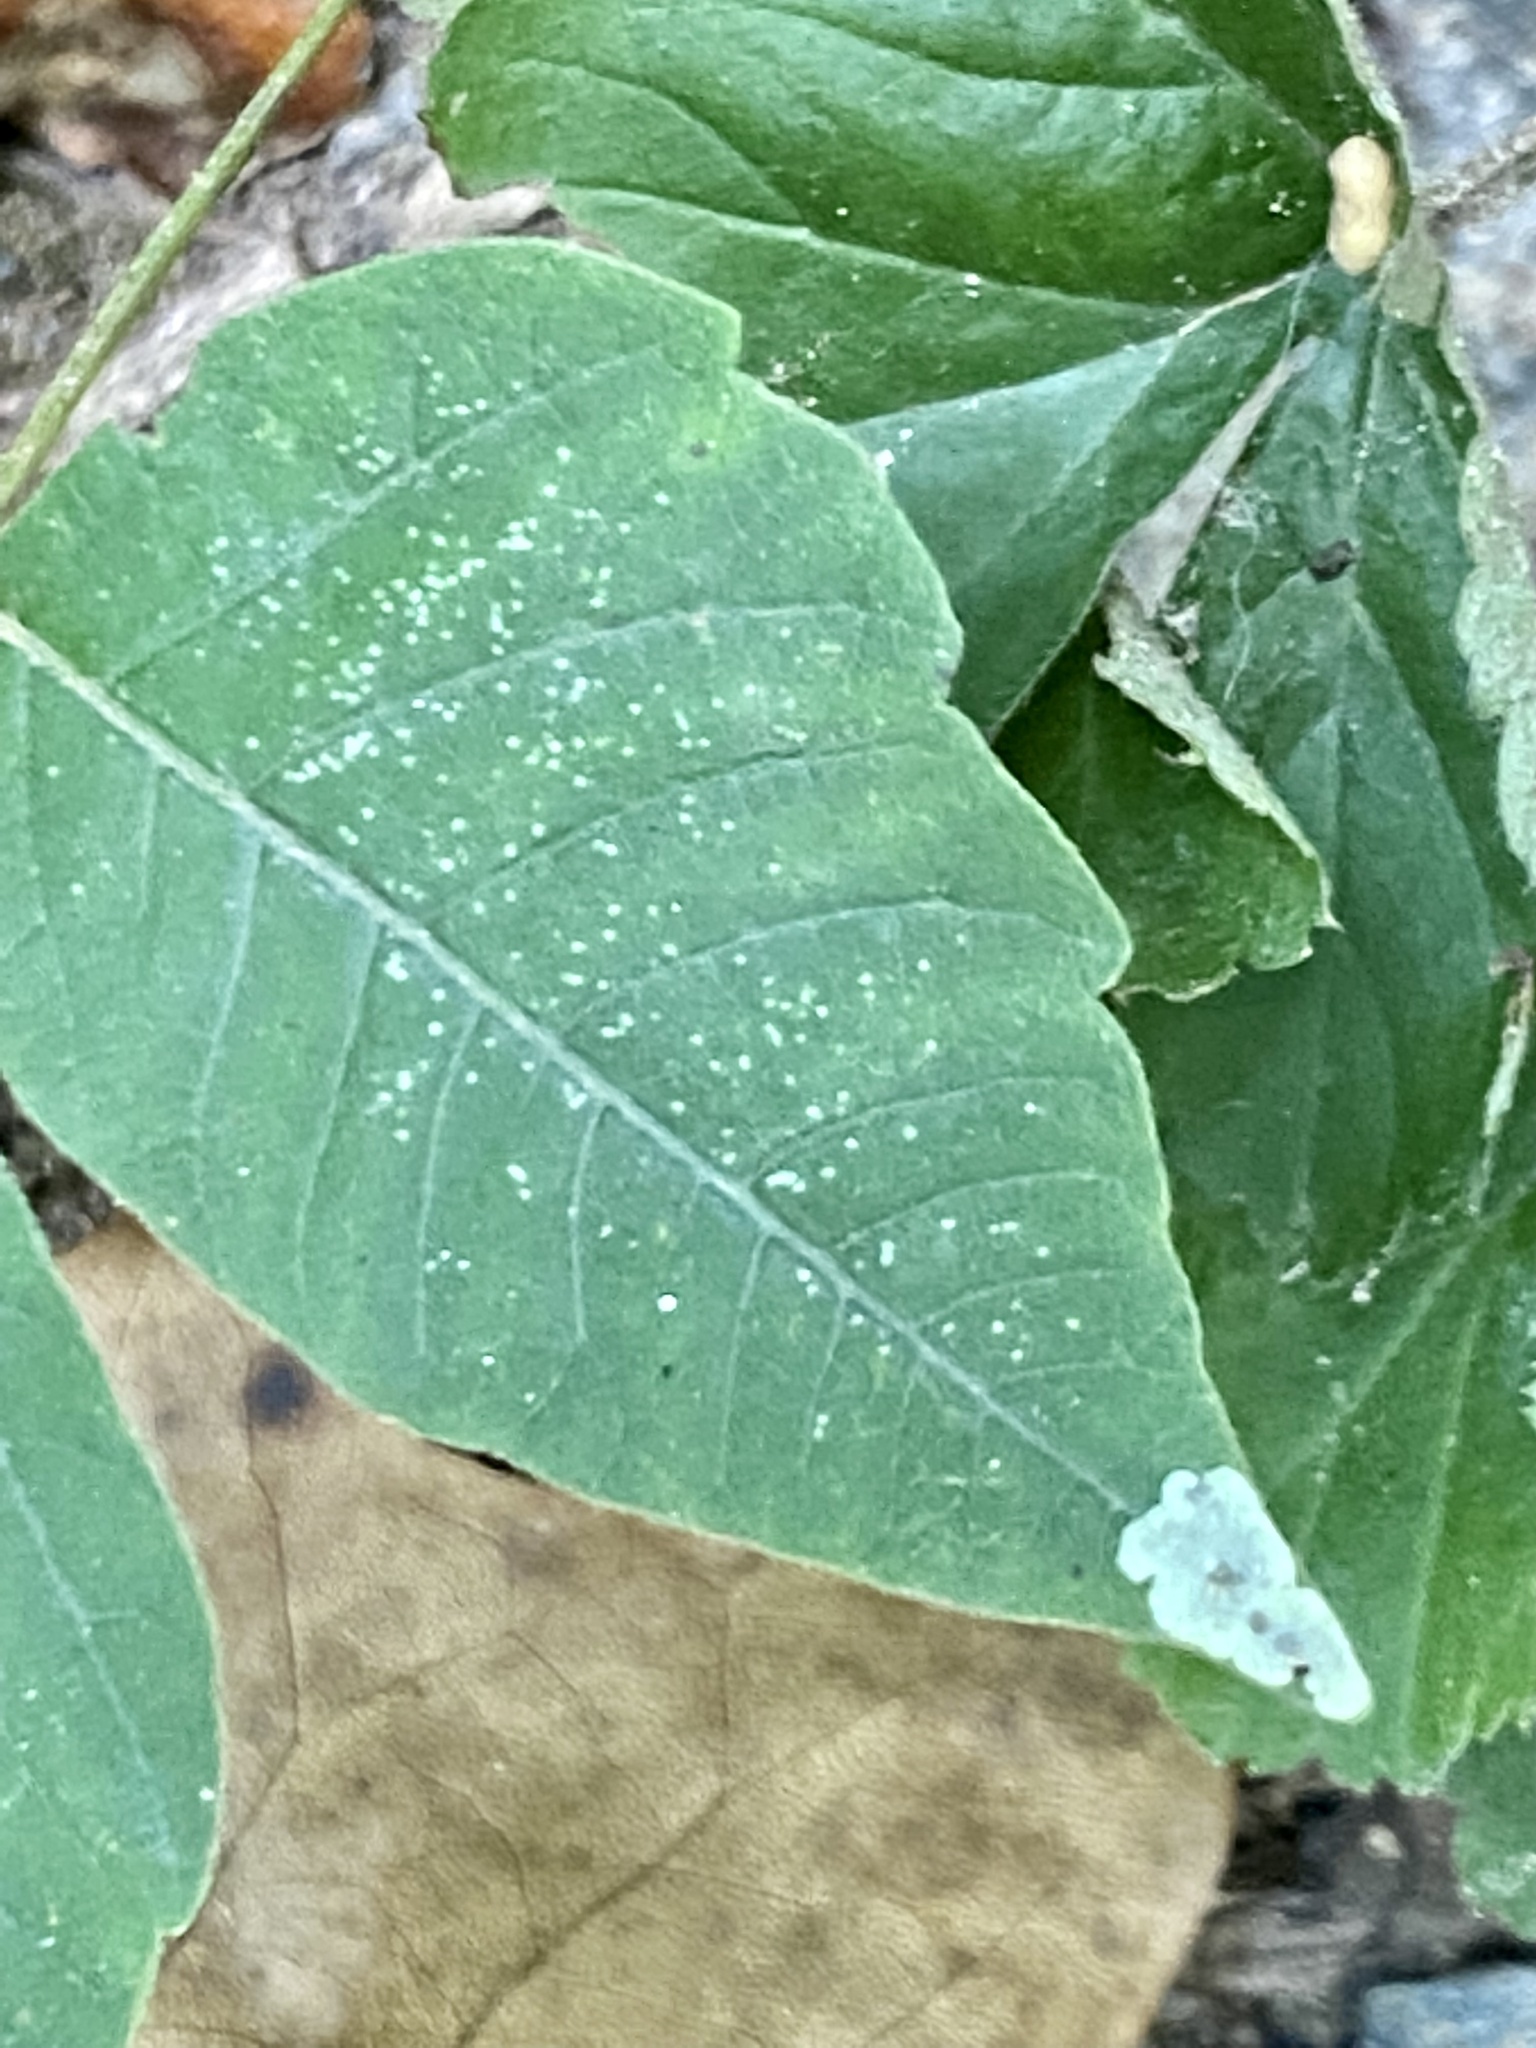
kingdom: Animalia
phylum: Arthropoda
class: Insecta
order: Lepidoptera
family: Gracillariidae
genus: Cameraria
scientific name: Cameraria guttifinitella
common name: Poison ivy leaf-miner moth
